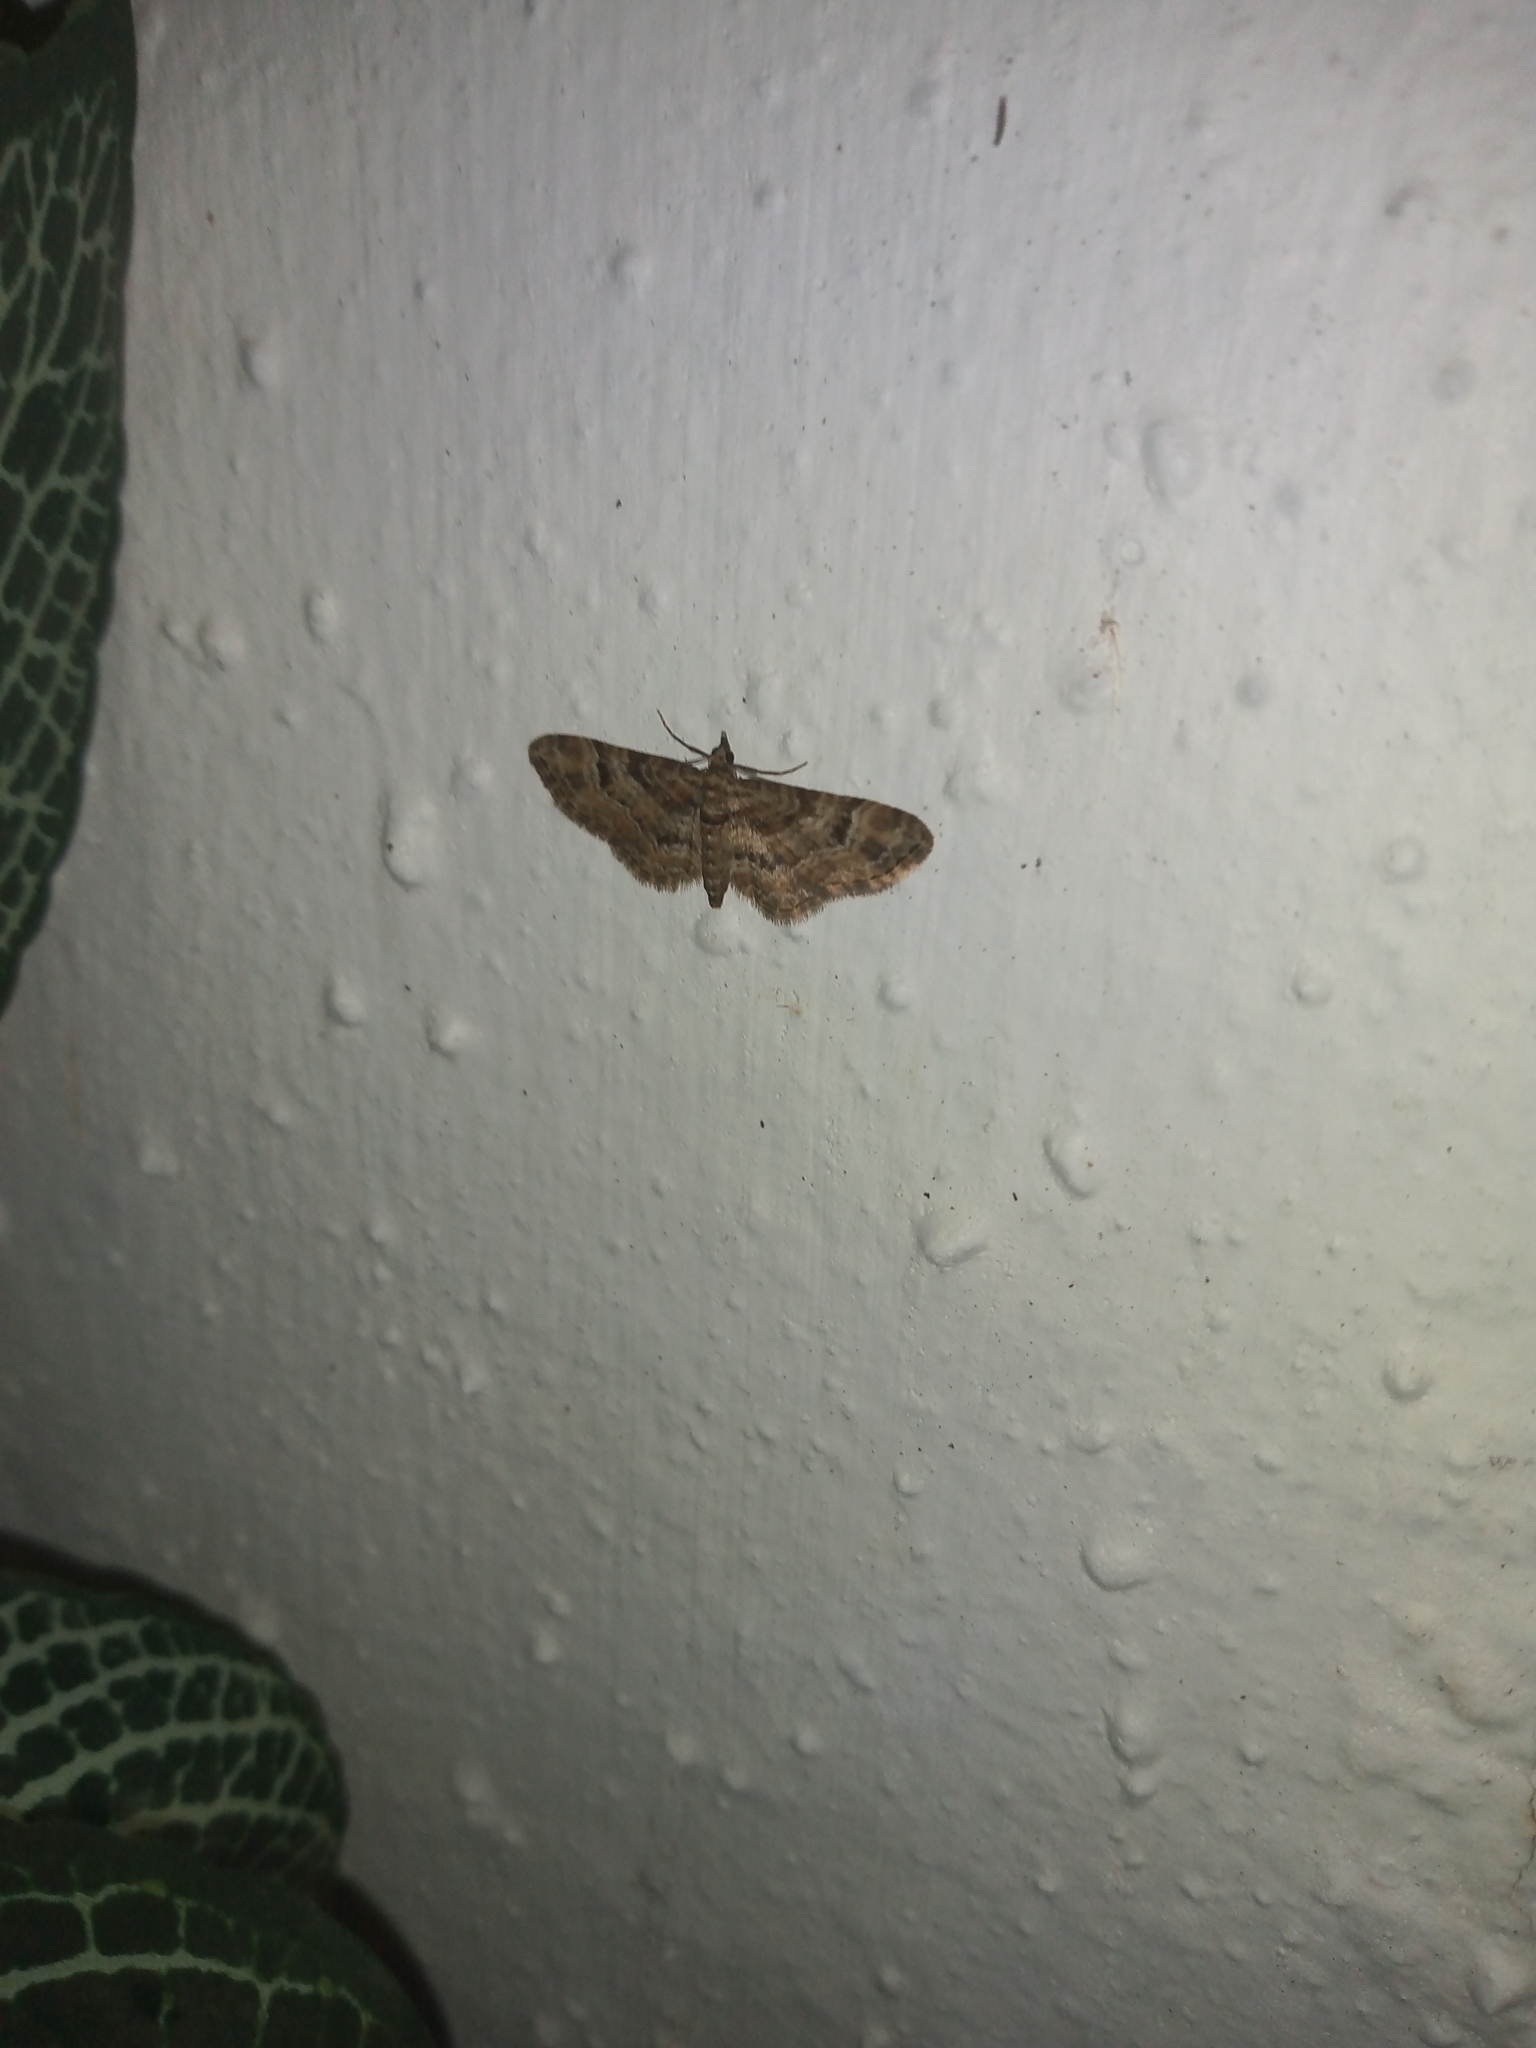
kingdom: Animalia
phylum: Arthropoda
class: Insecta
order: Lepidoptera
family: Geometridae
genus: Gymnoscelis
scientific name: Gymnoscelis rufifasciata
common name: Double-striped pug
